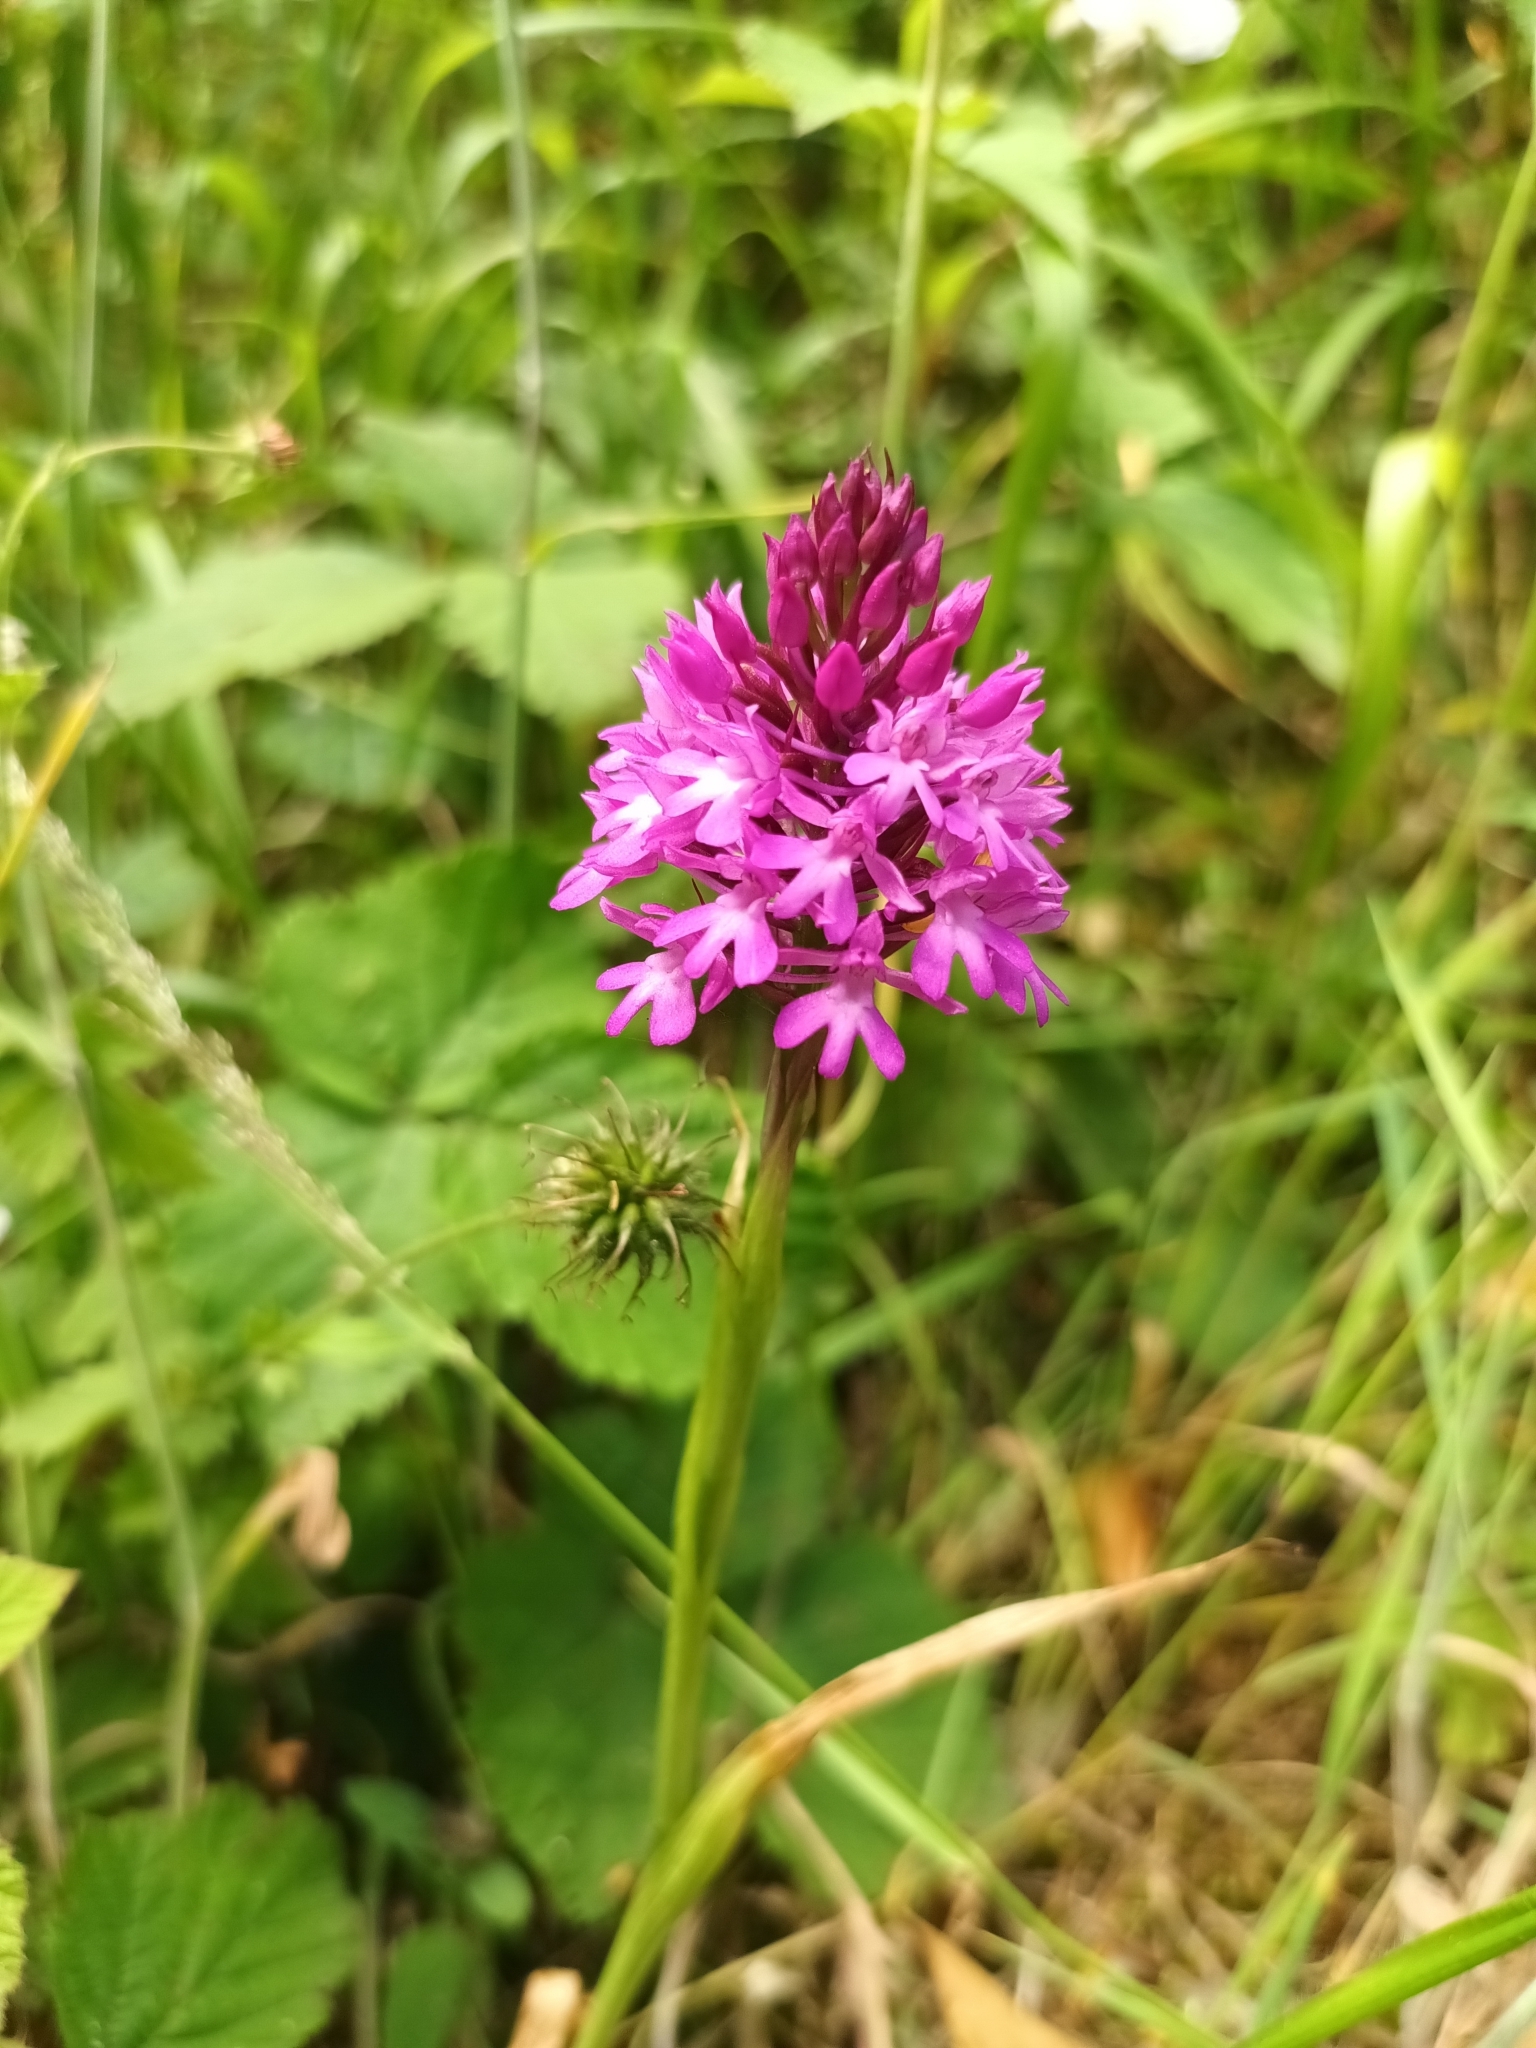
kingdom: Plantae
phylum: Tracheophyta
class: Liliopsida
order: Asparagales
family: Orchidaceae
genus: Anacamptis
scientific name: Anacamptis pyramidalis
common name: Pyramidal orchid
